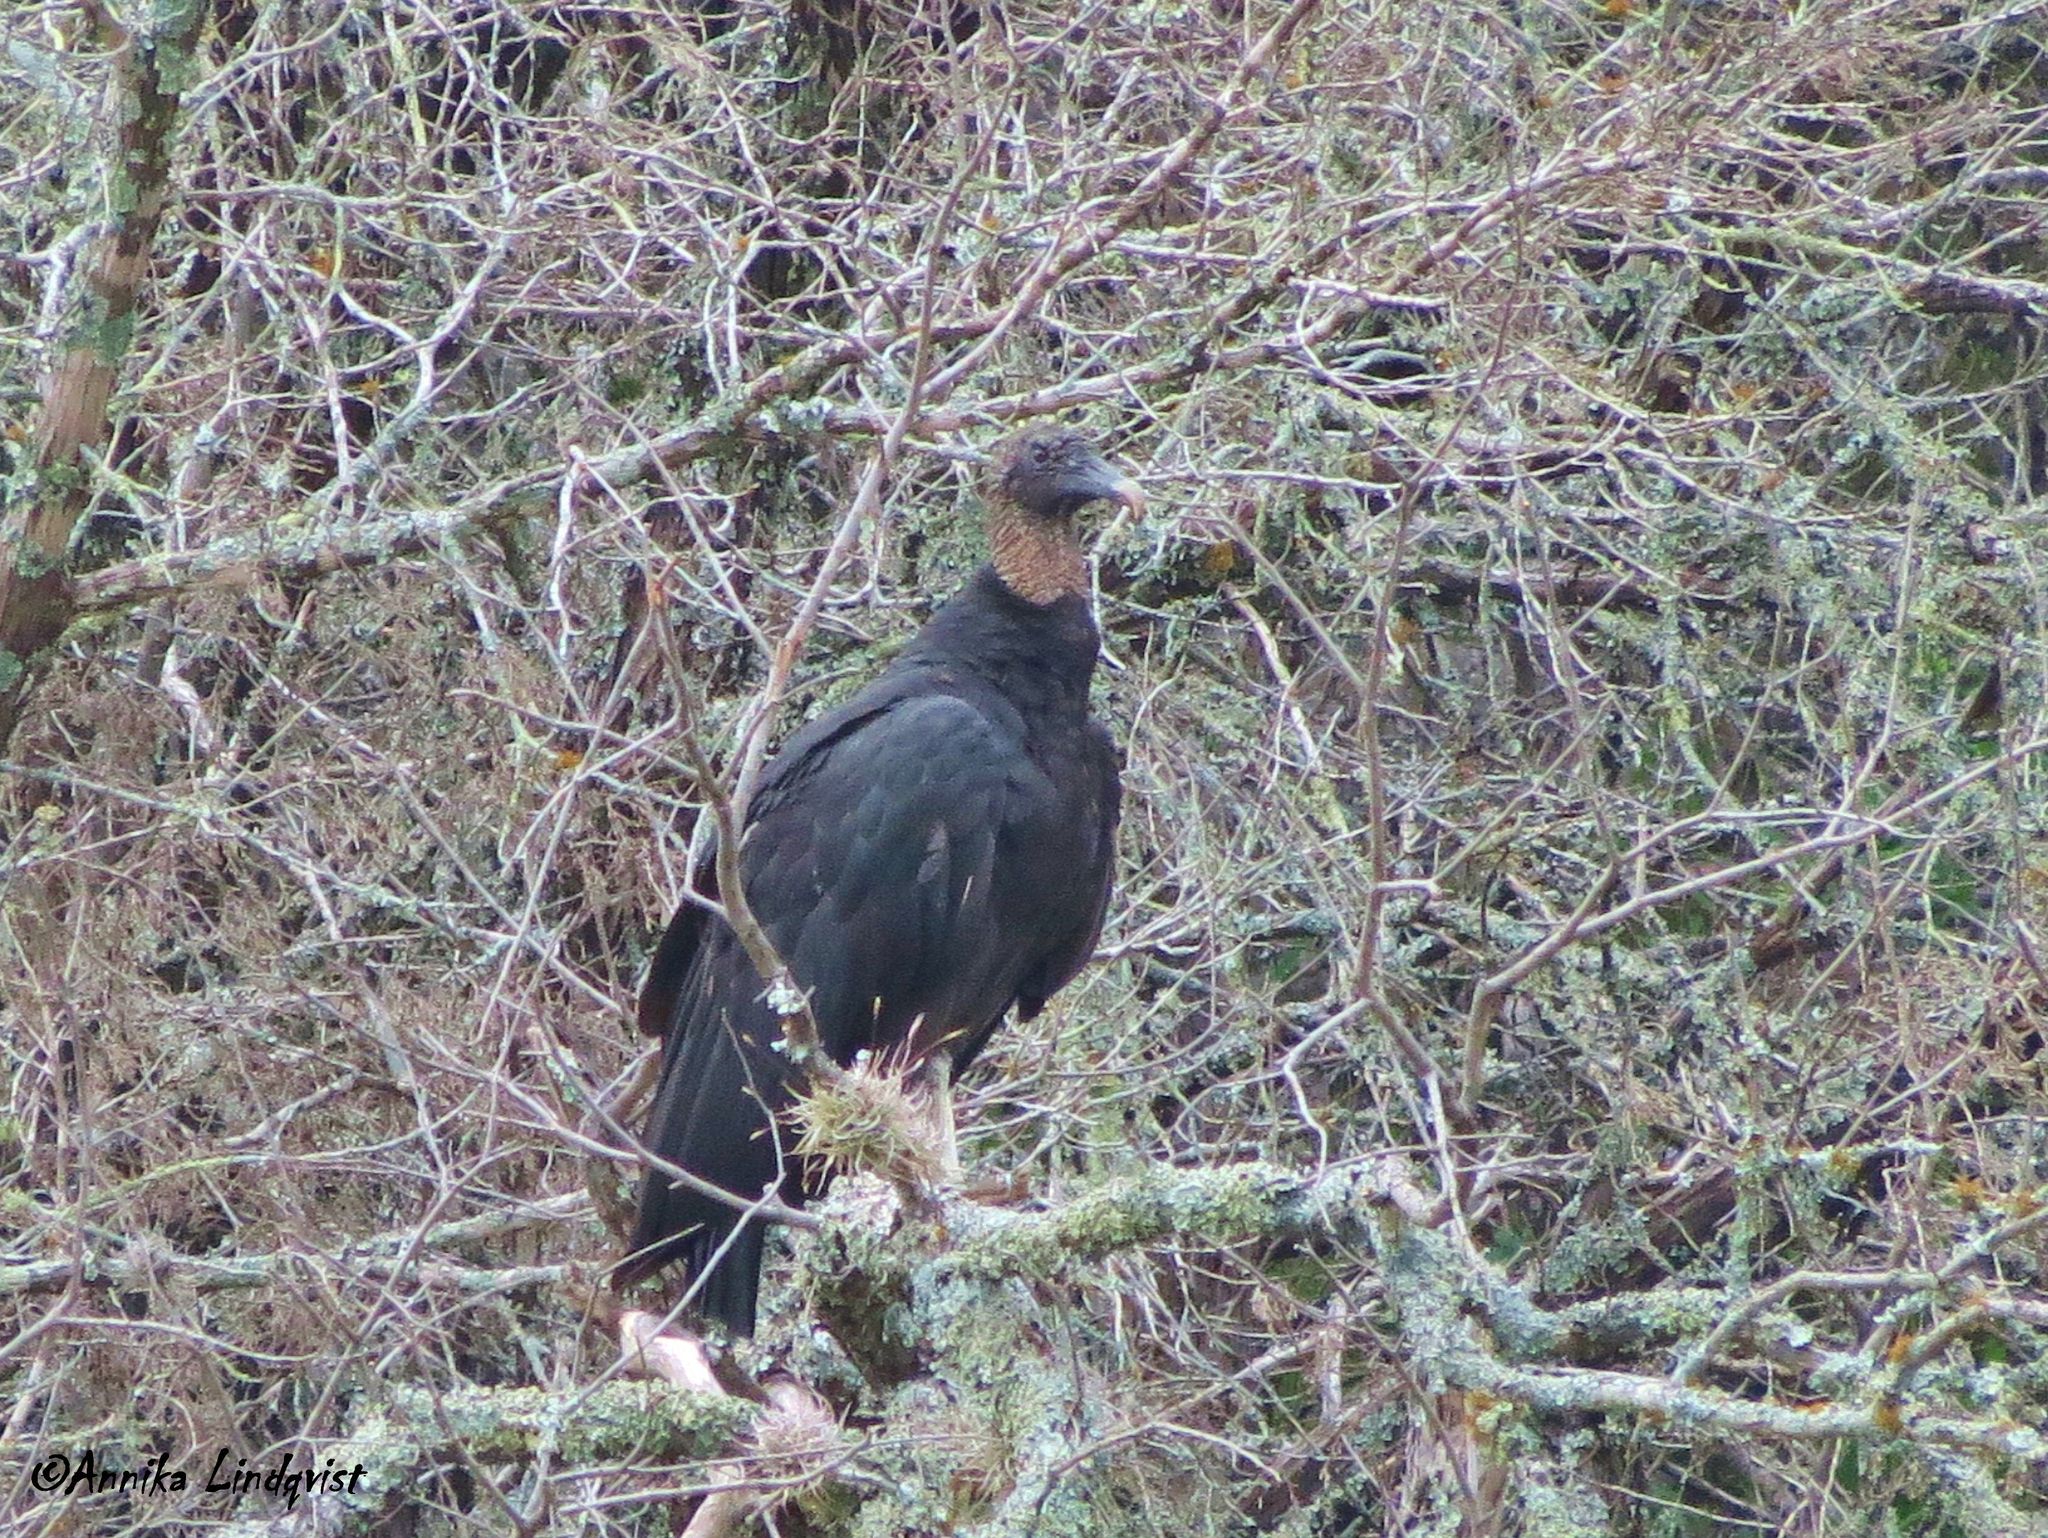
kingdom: Animalia
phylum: Chordata
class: Aves
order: Accipitriformes
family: Cathartidae
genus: Coragyps
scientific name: Coragyps atratus
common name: Black vulture
